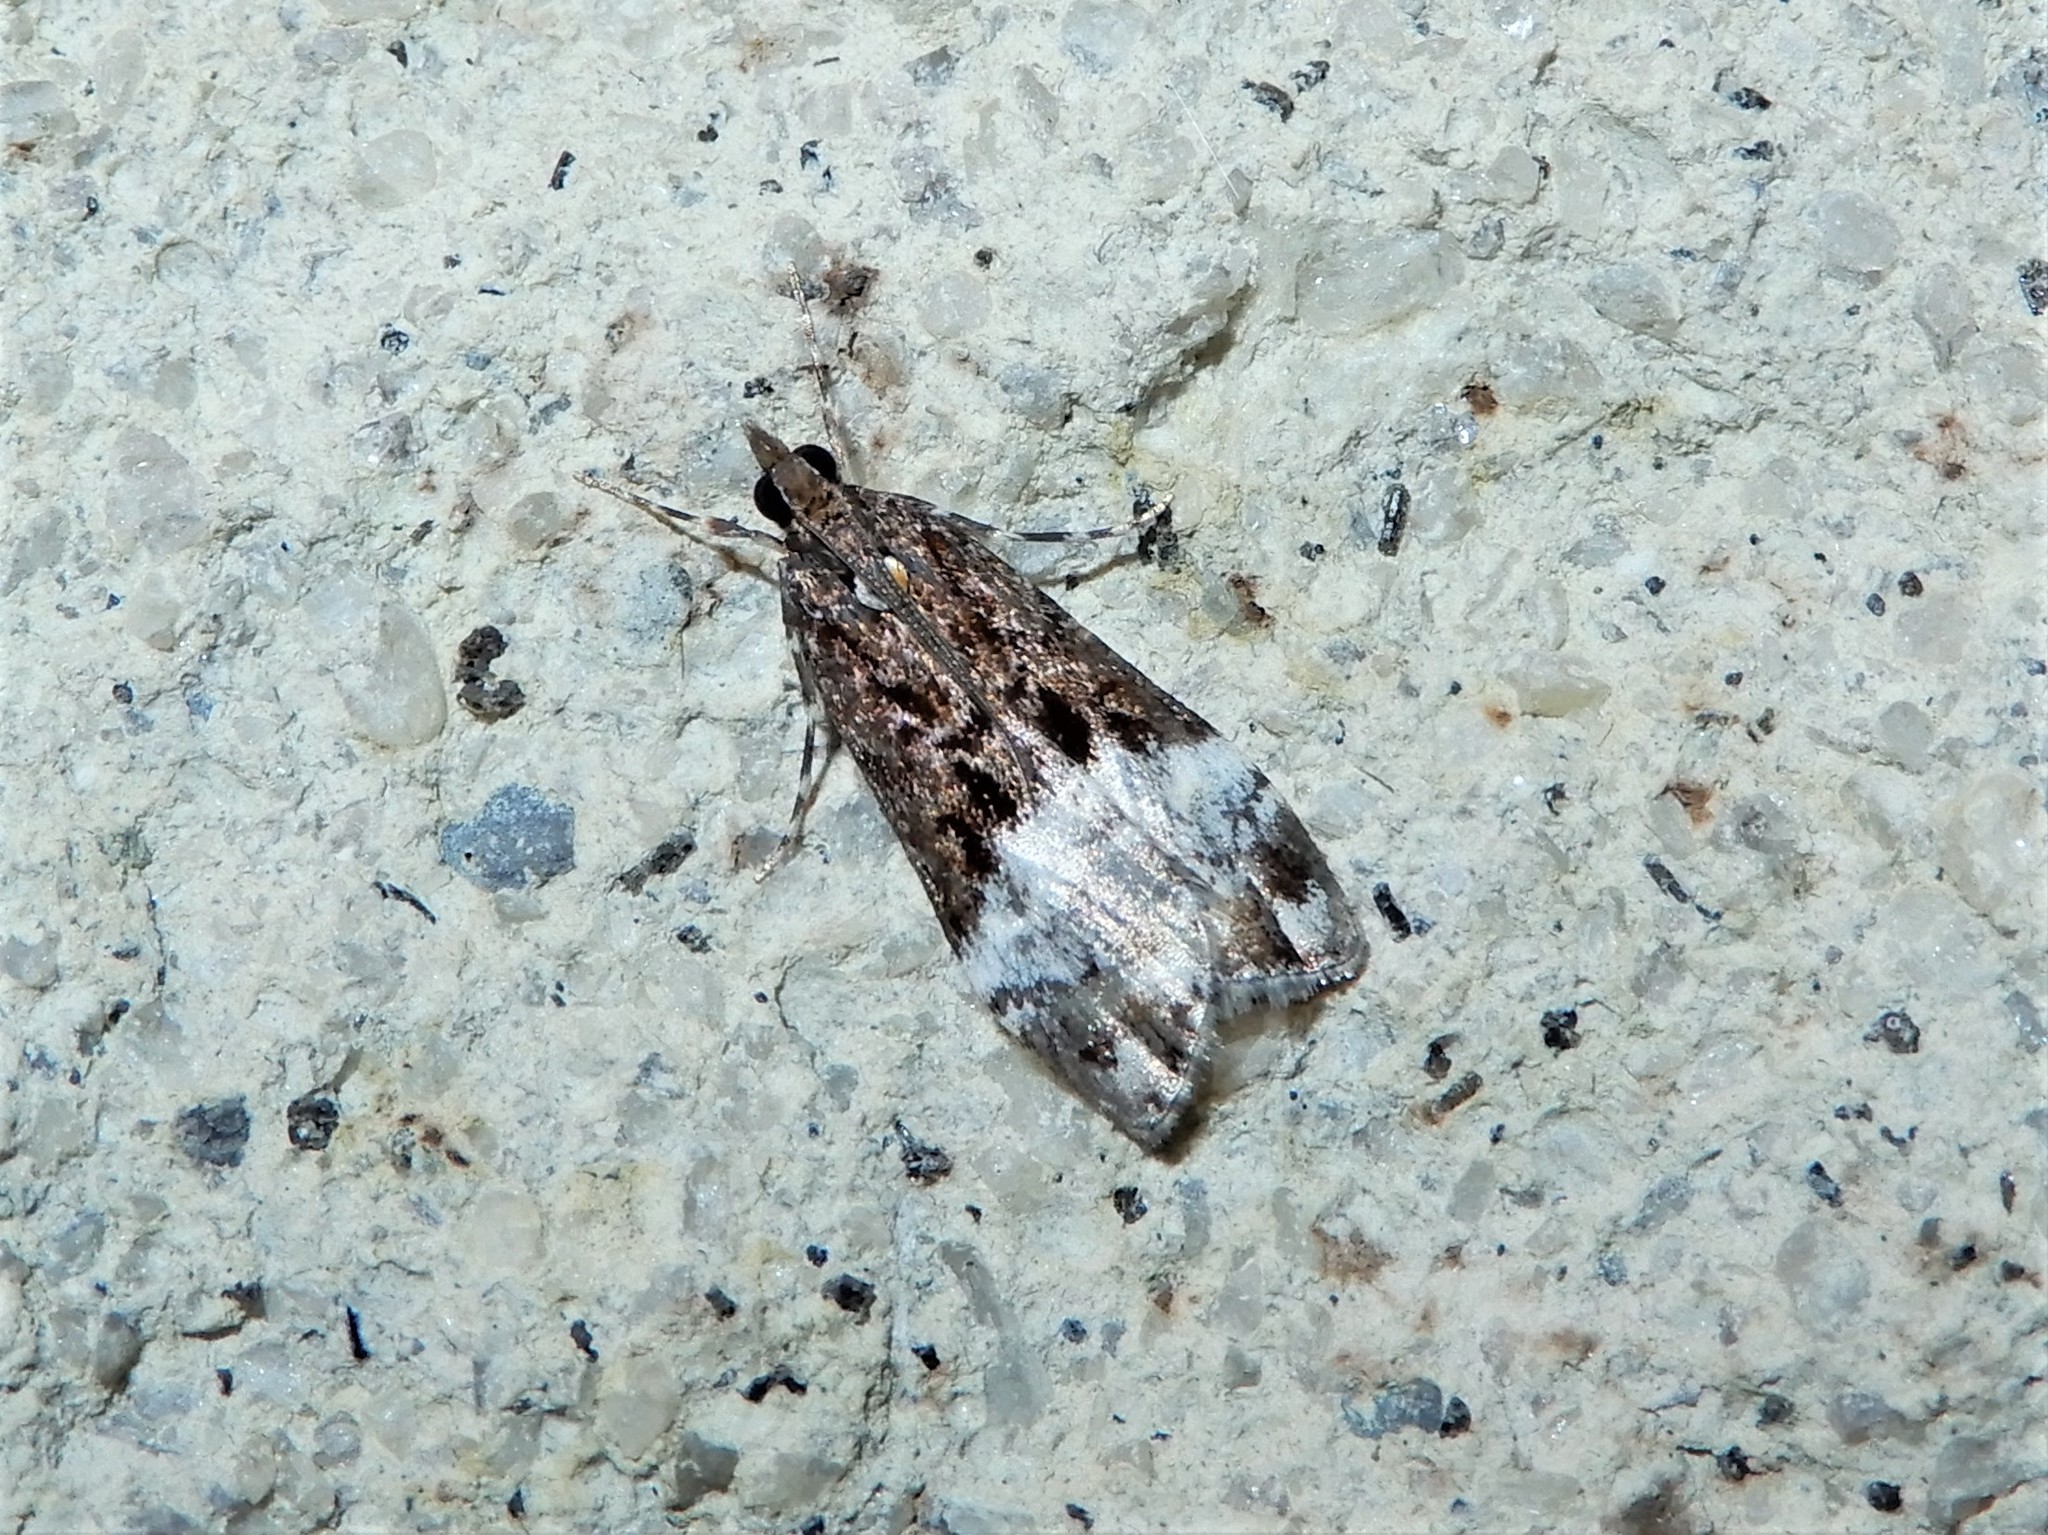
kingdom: Animalia
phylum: Arthropoda
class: Insecta
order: Lepidoptera
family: Crambidae
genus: Scoparia
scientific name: Scoparia minusculalis
